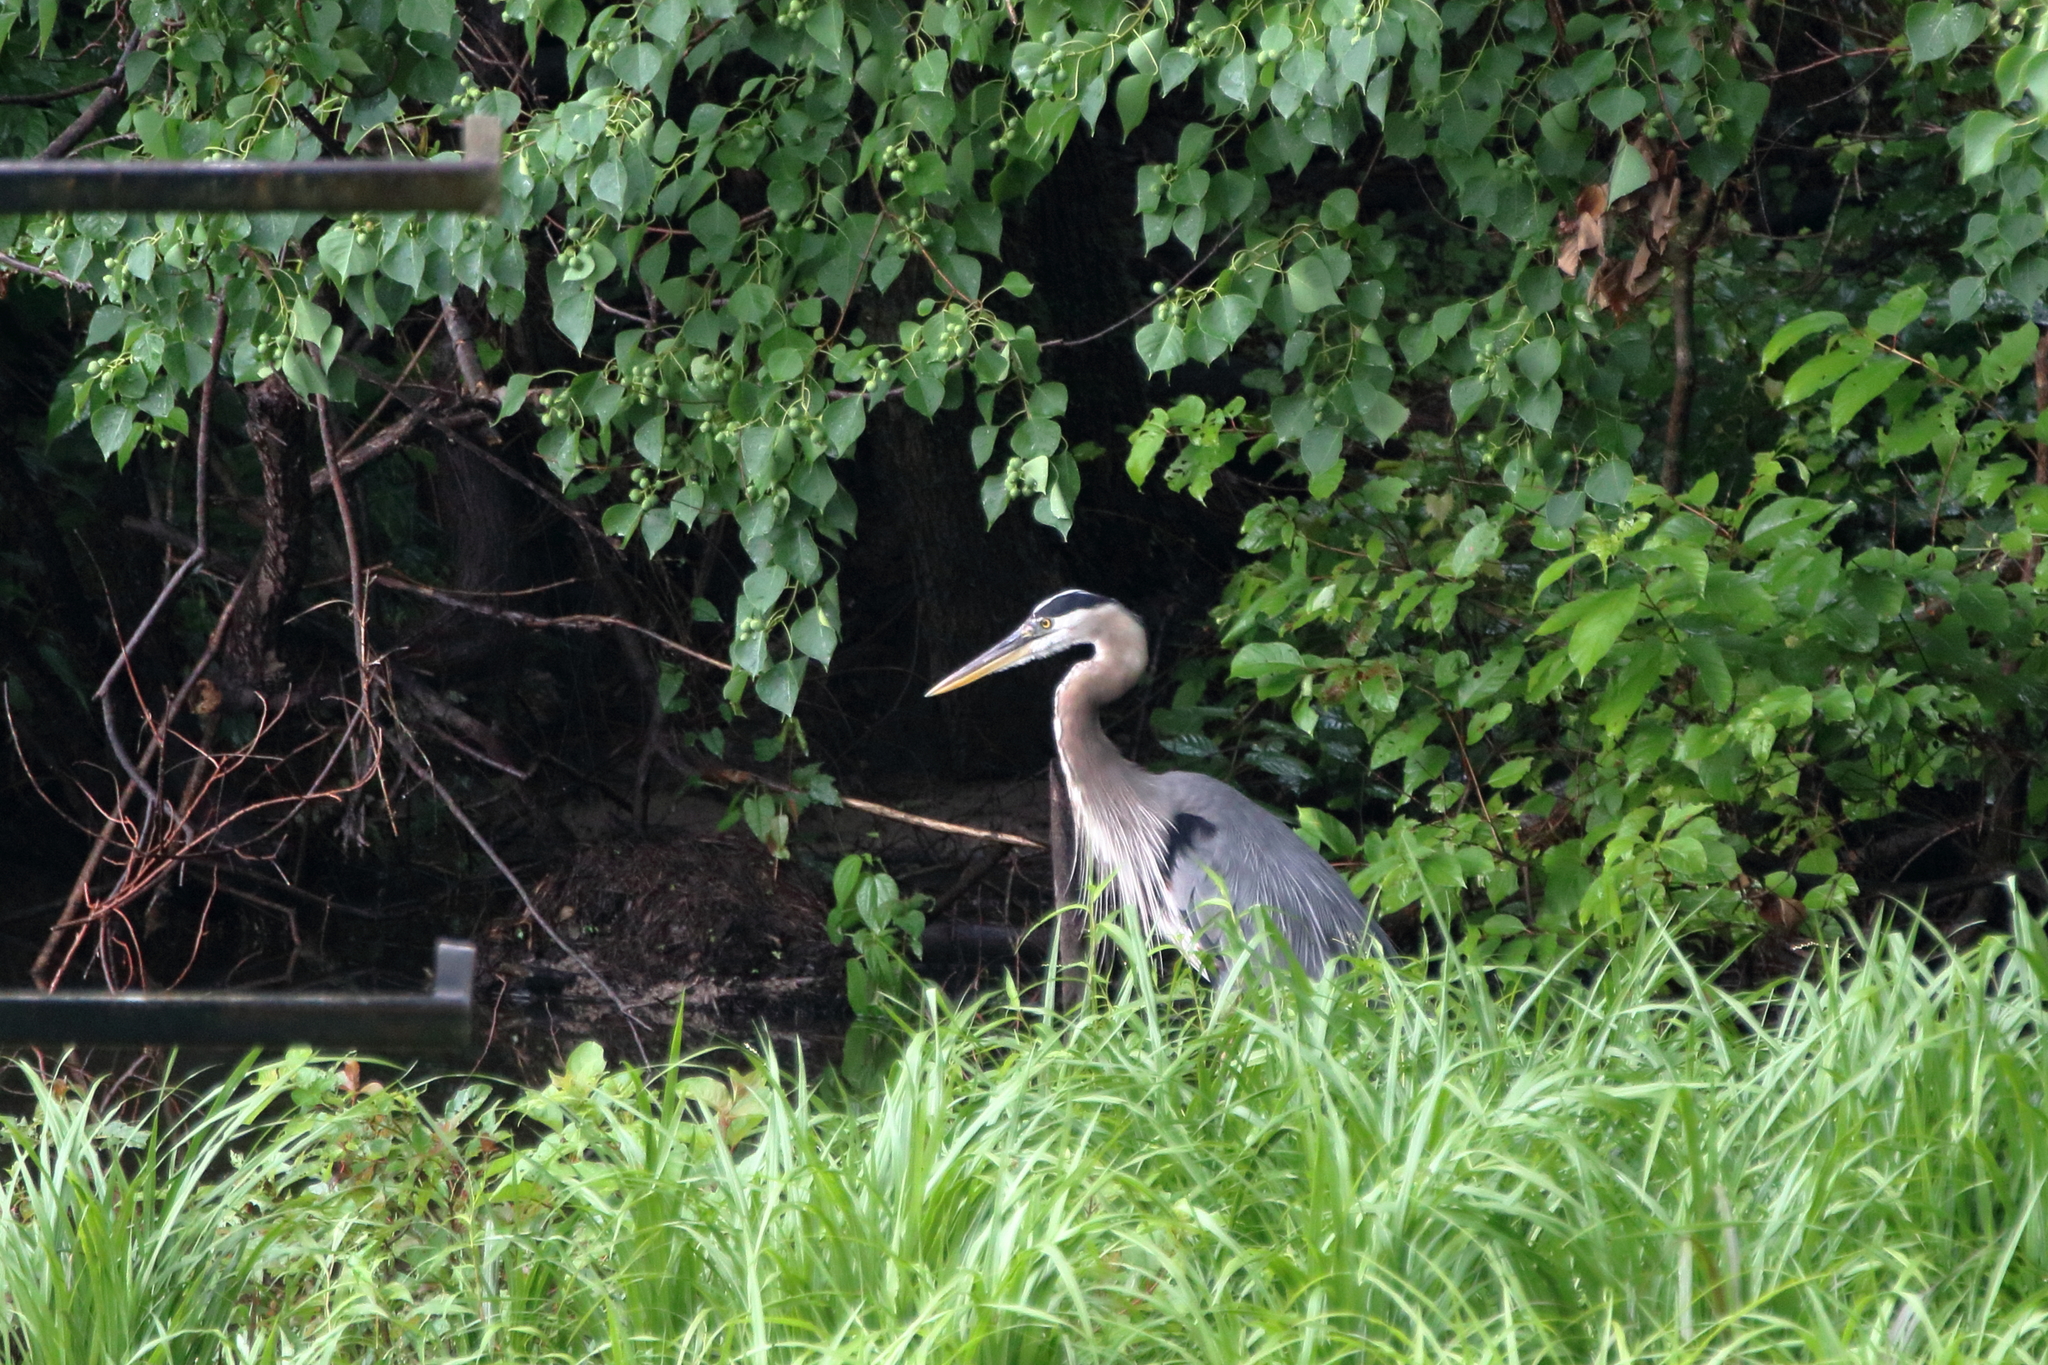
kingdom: Animalia
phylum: Chordata
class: Aves
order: Pelecaniformes
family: Ardeidae
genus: Ardea
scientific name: Ardea herodias
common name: Great blue heron
